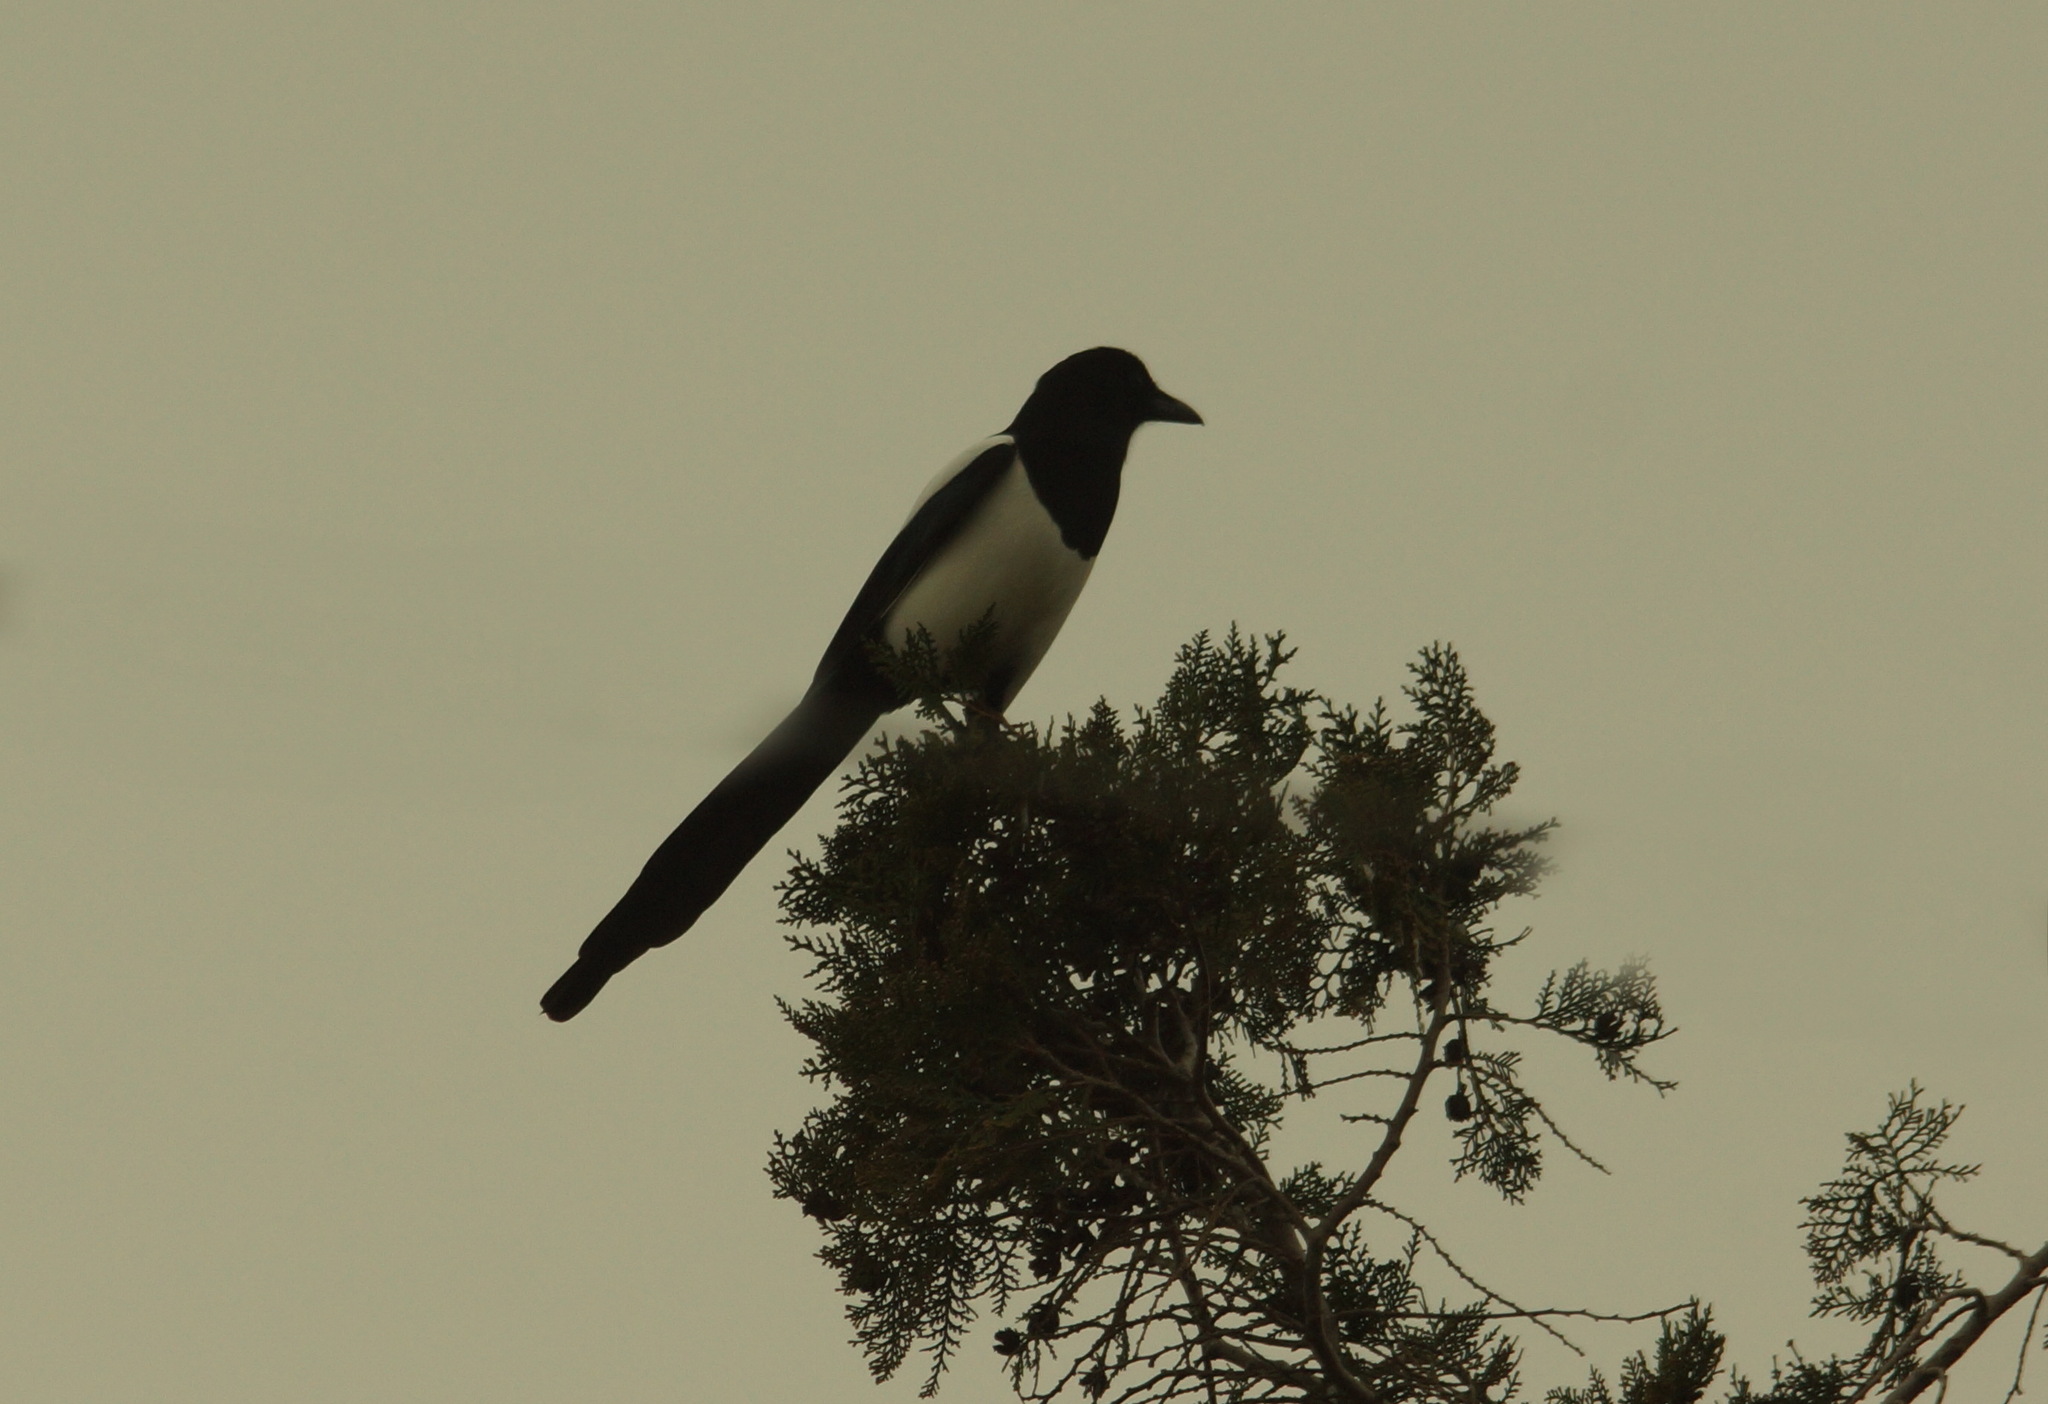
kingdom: Animalia
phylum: Chordata
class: Aves
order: Passeriformes
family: Corvidae
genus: Pica
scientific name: Pica pica
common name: Eurasian magpie
